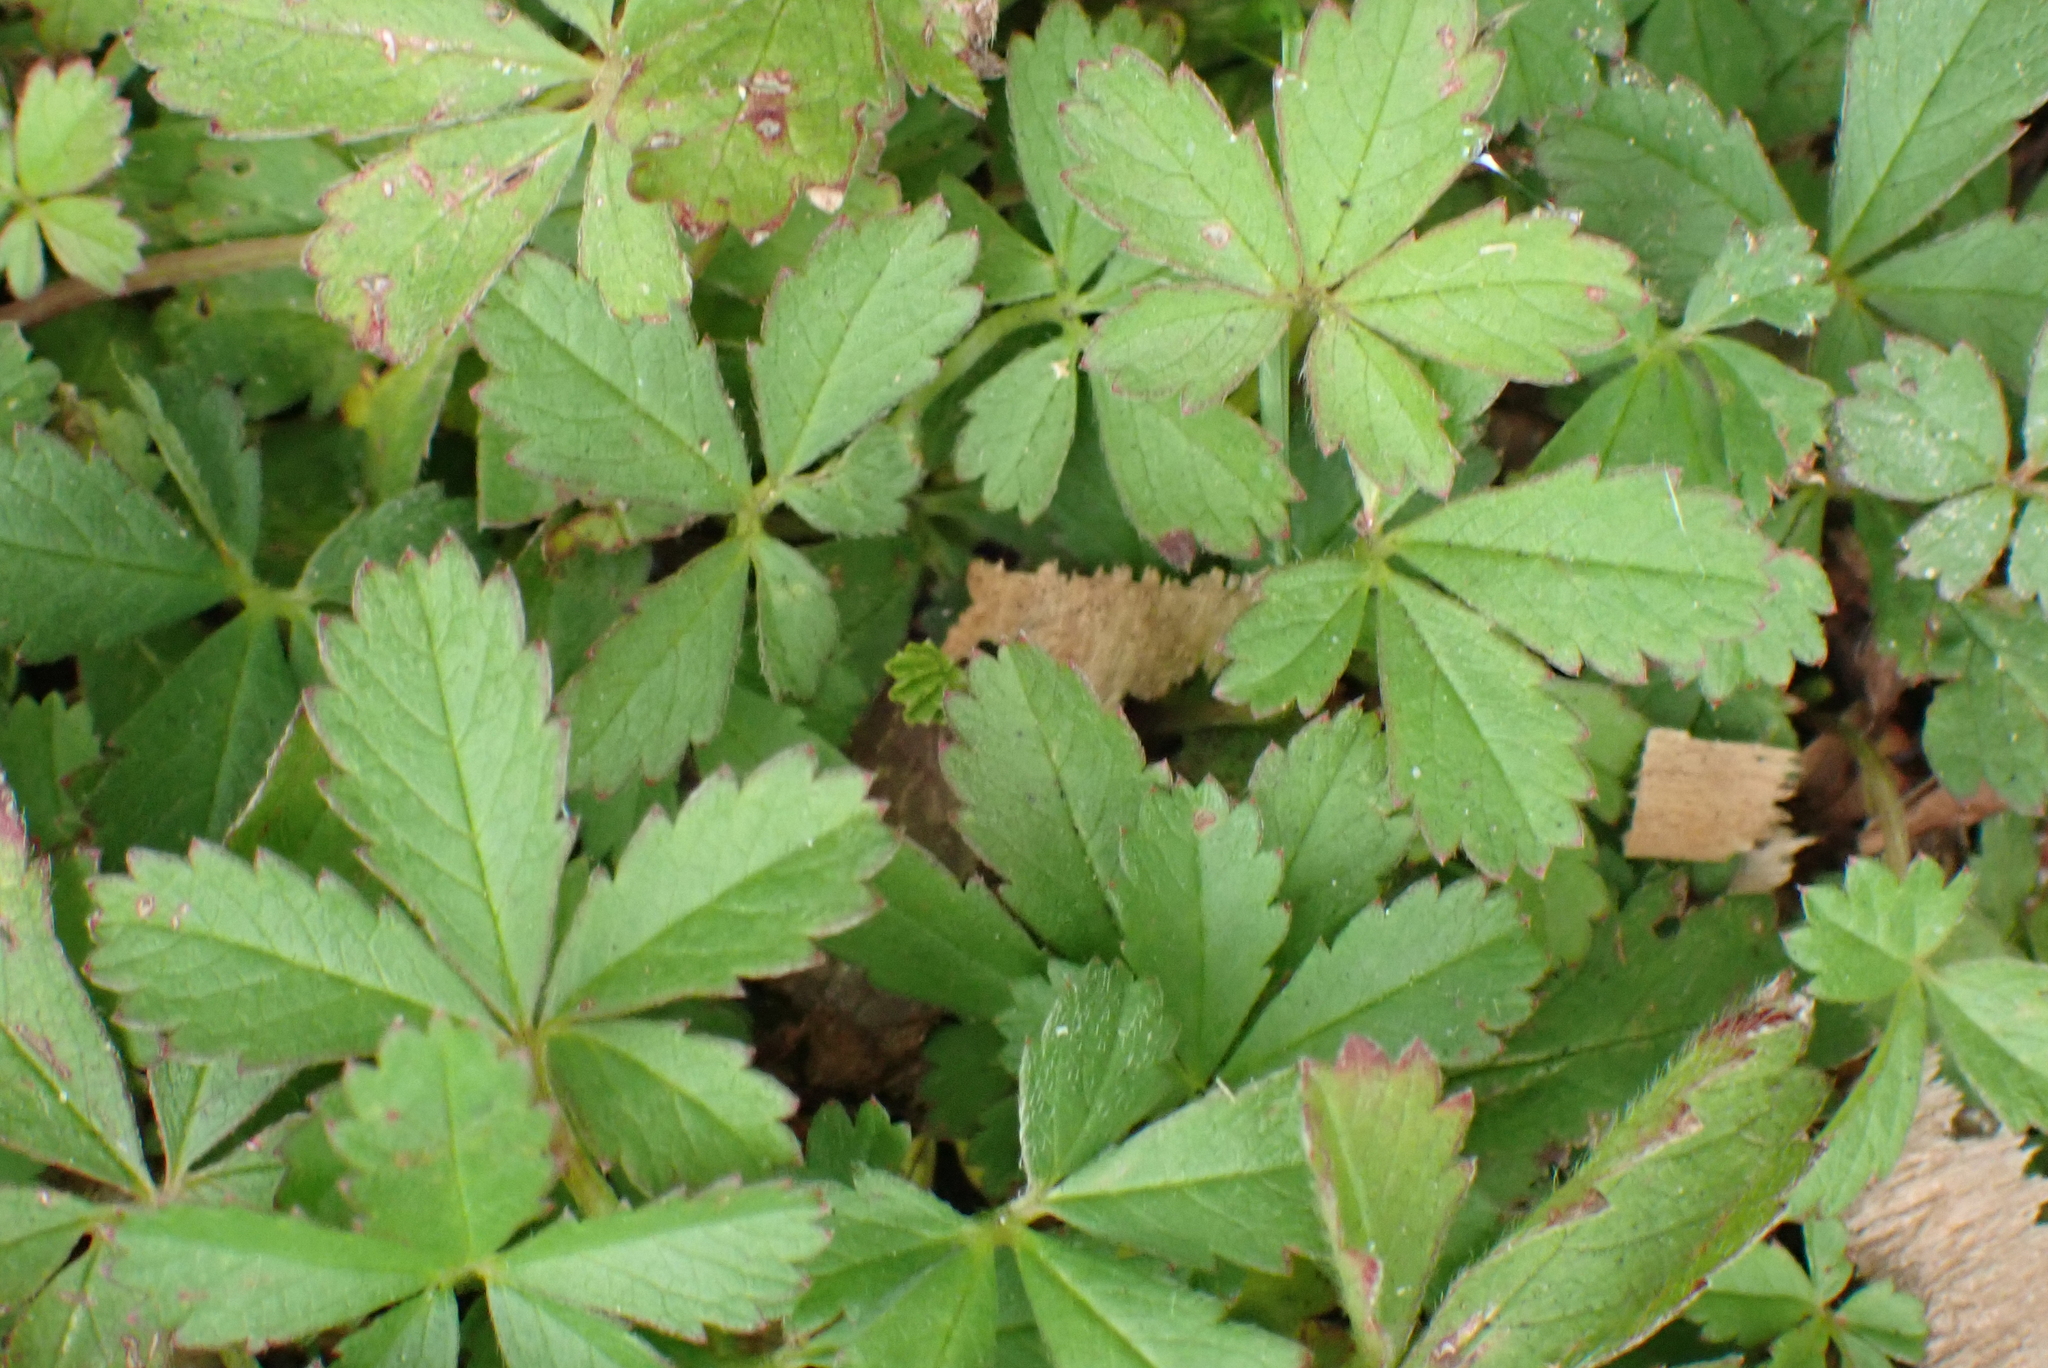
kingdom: Plantae
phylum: Tracheophyta
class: Magnoliopsida
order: Rosales
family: Rosaceae
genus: Potentilla
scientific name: Potentilla reptans
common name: Creeping cinquefoil
